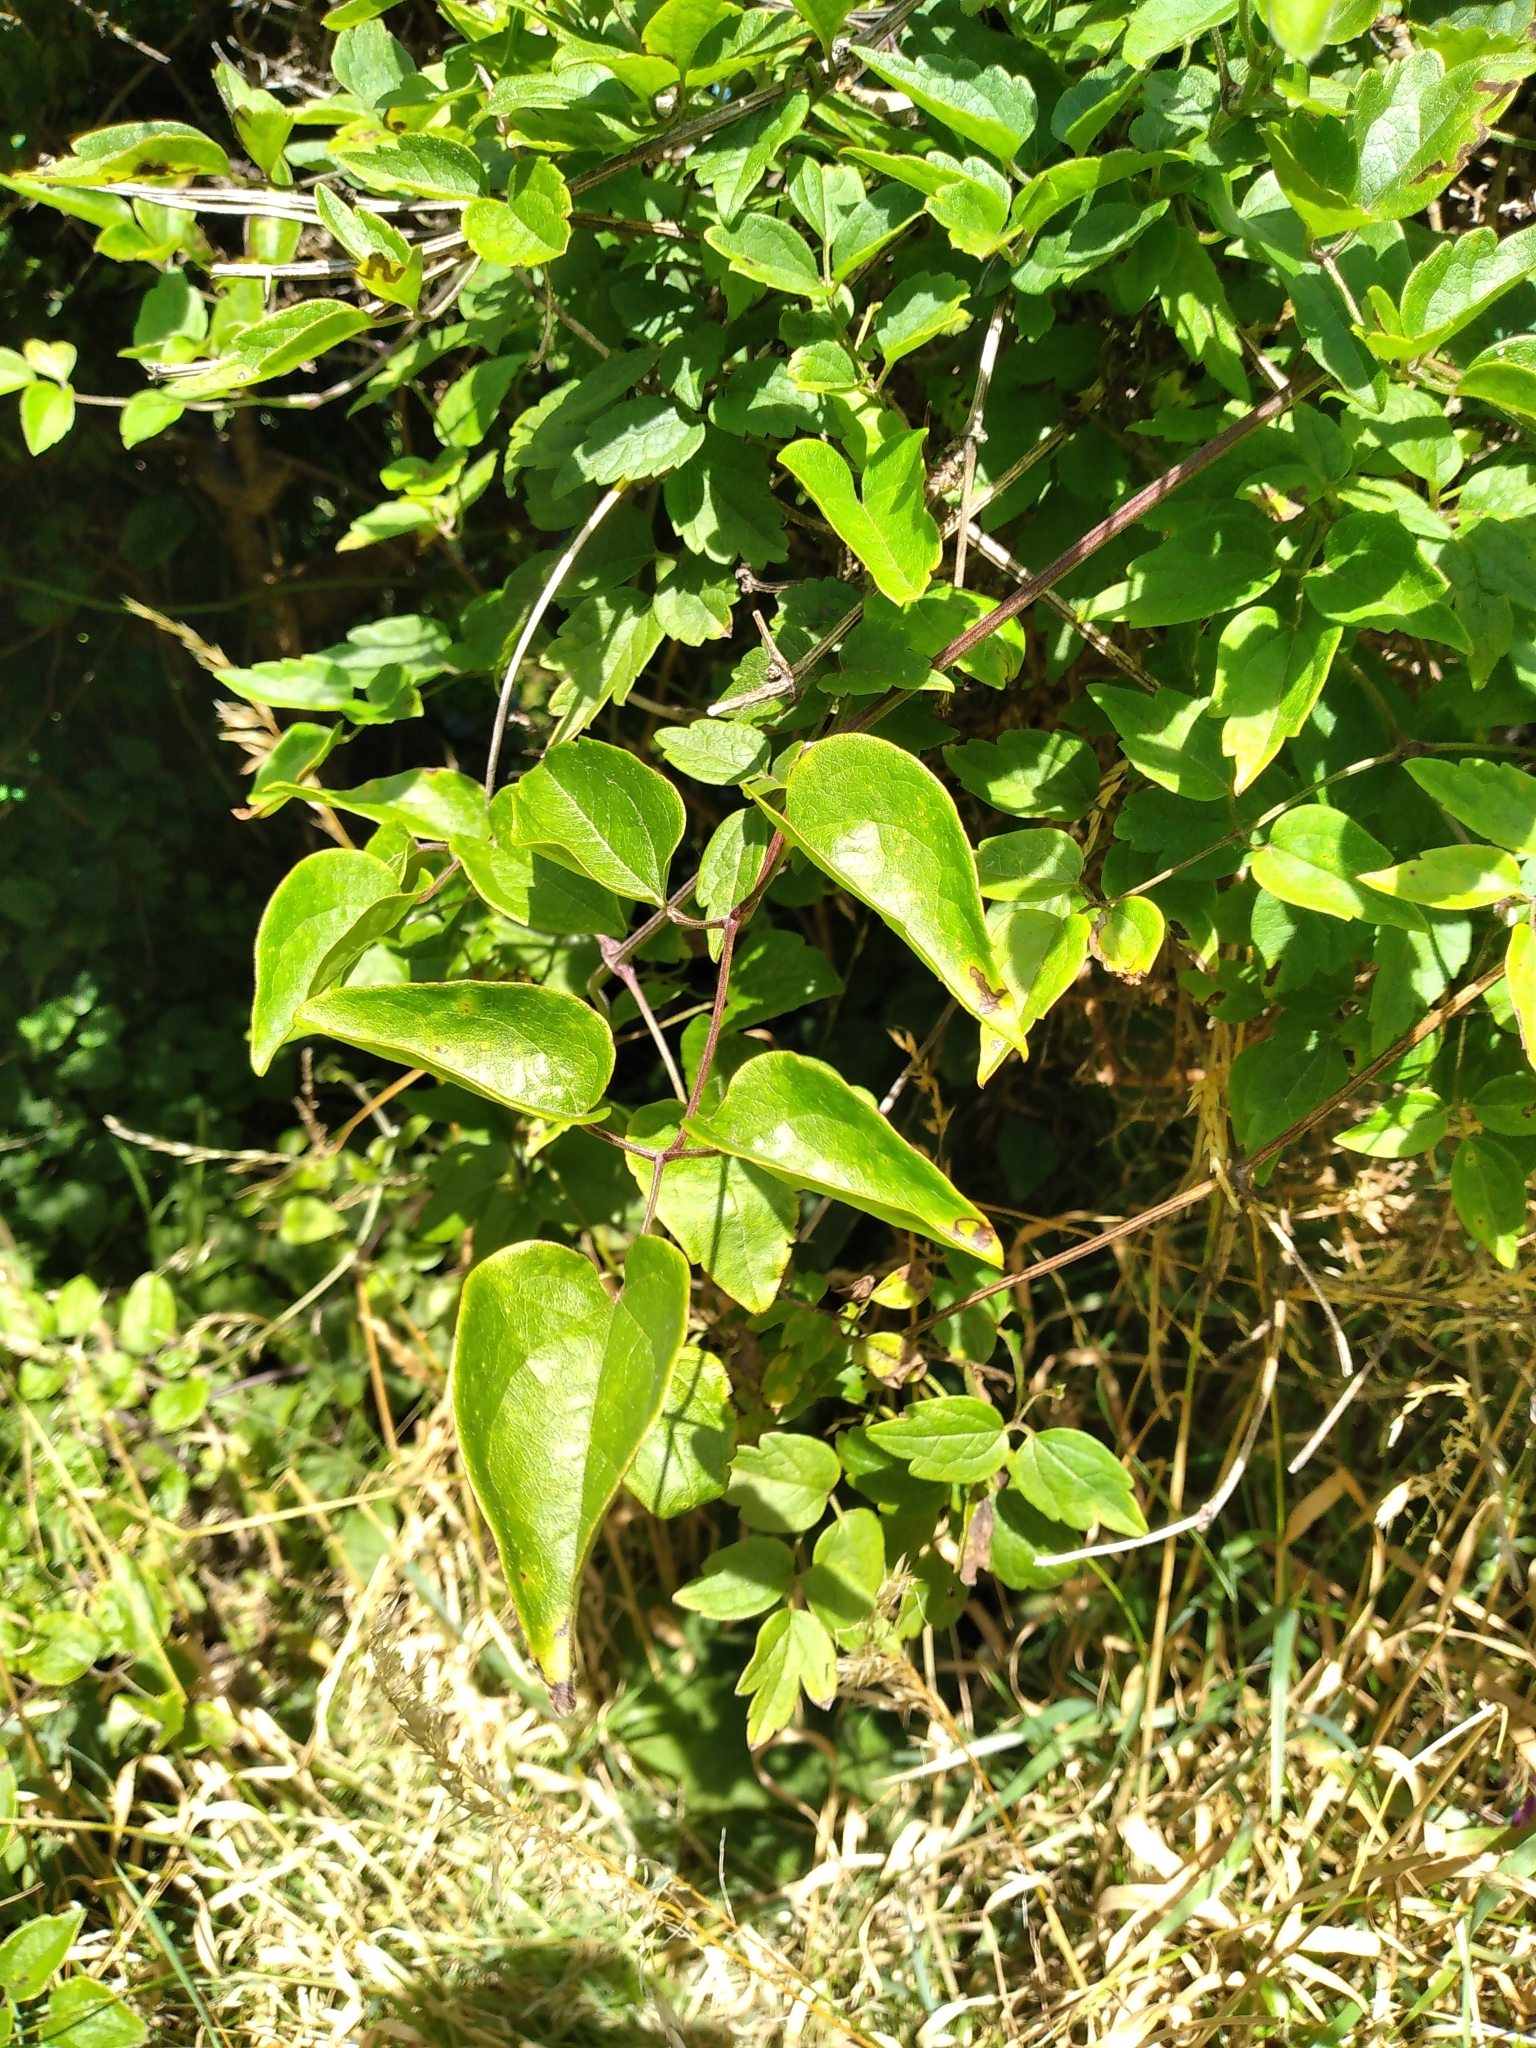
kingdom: Plantae
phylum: Tracheophyta
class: Magnoliopsida
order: Ranunculales
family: Ranunculaceae
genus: Clematis
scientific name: Clematis vitalba
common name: Evergreen clematis
